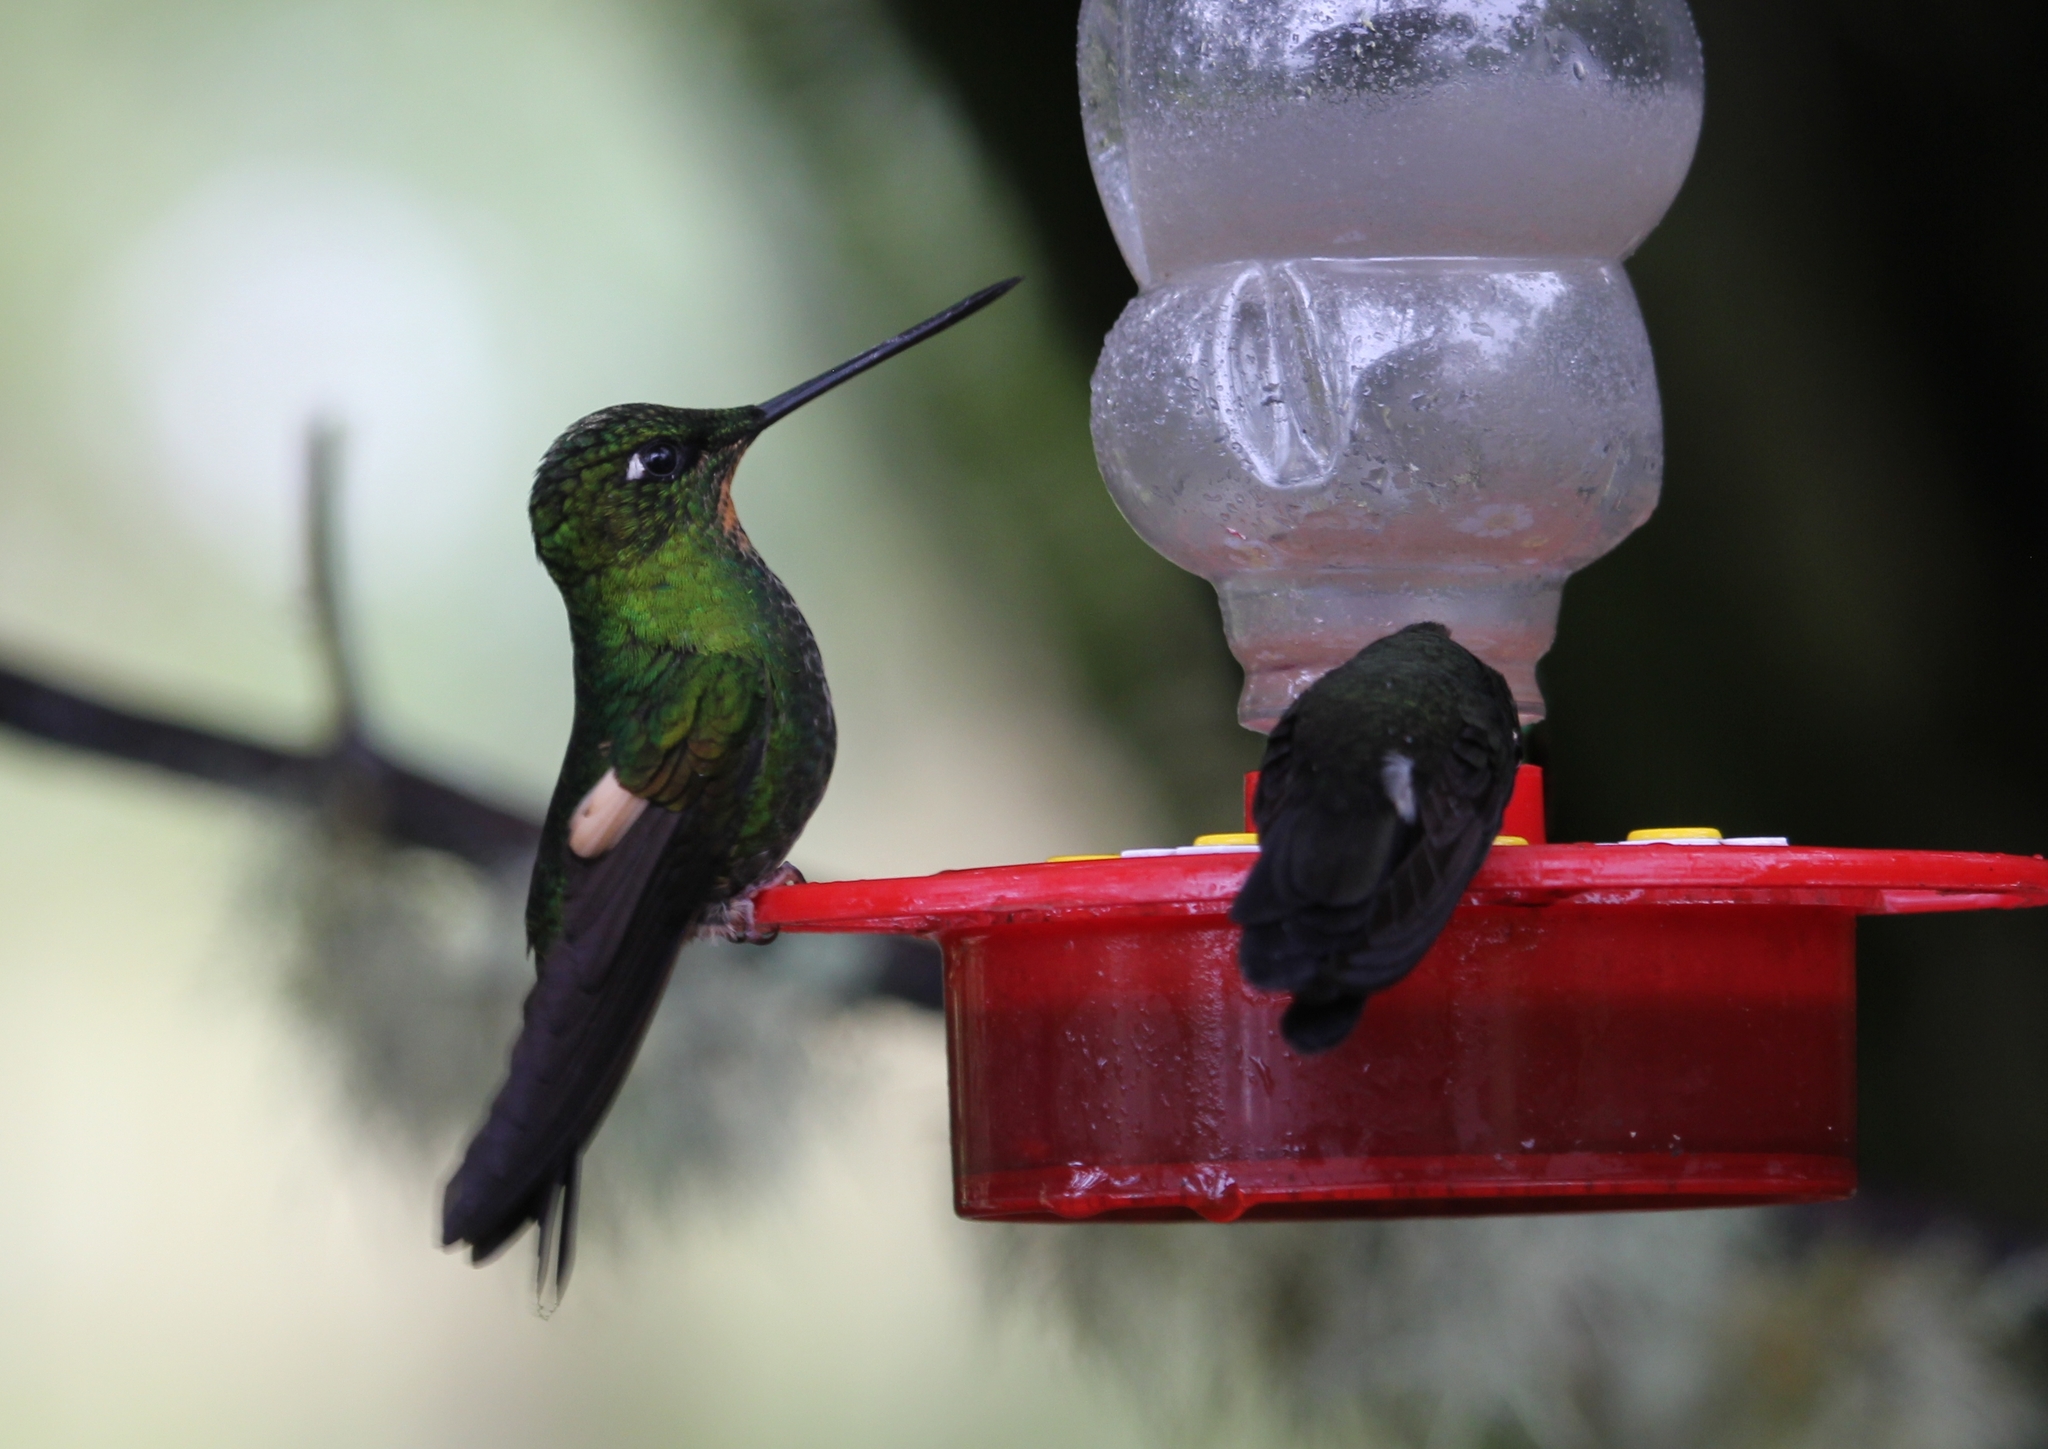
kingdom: Animalia
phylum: Chordata
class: Aves
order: Apodiformes
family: Trochilidae
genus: Coeligena
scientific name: Coeligena lutetiae
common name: Buff-winged starfrontlet
